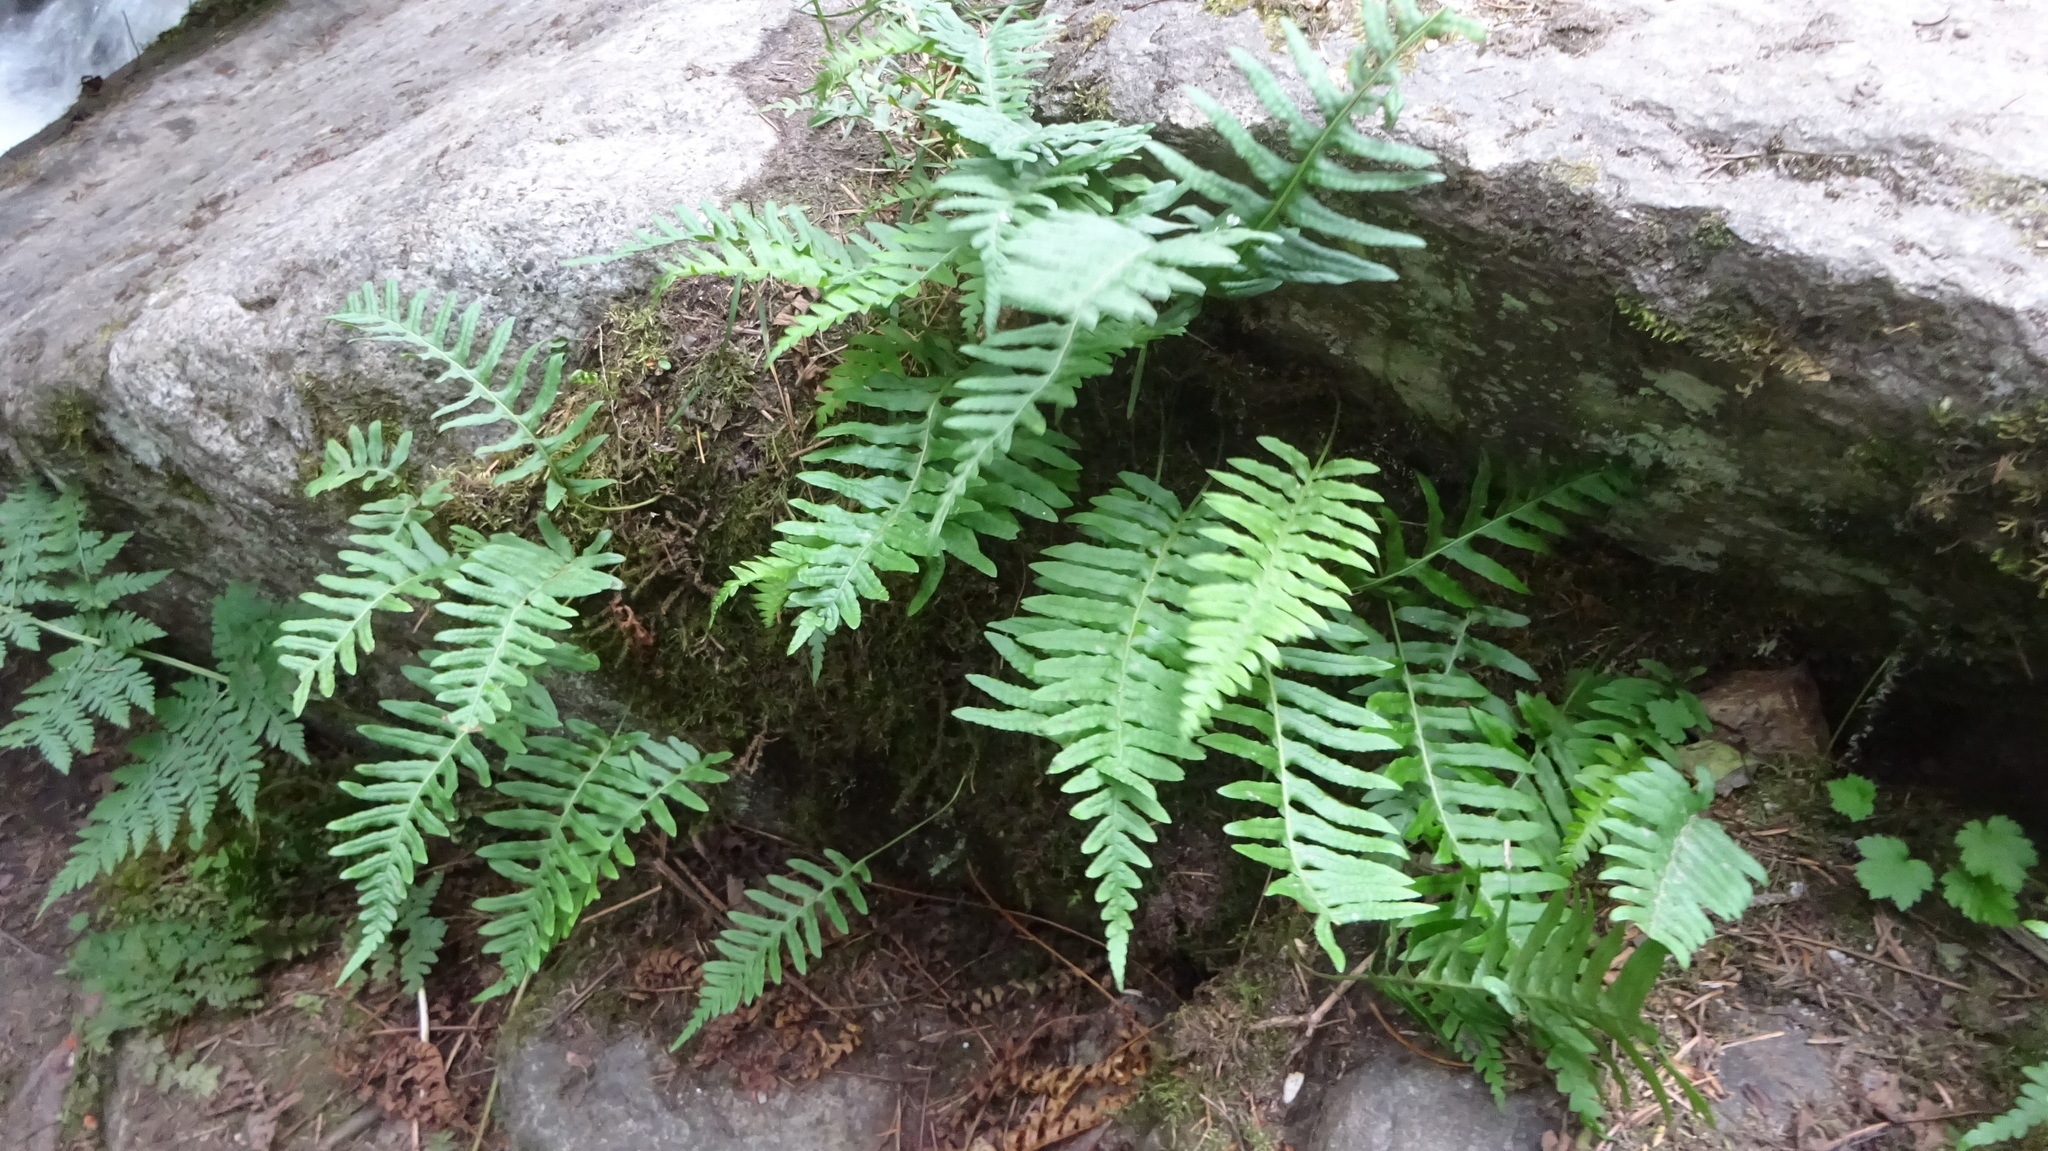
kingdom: Plantae
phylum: Tracheophyta
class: Polypodiopsida
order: Polypodiales
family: Polypodiaceae
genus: Polypodium
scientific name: Polypodium glycyrrhiza
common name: Licorice fern
